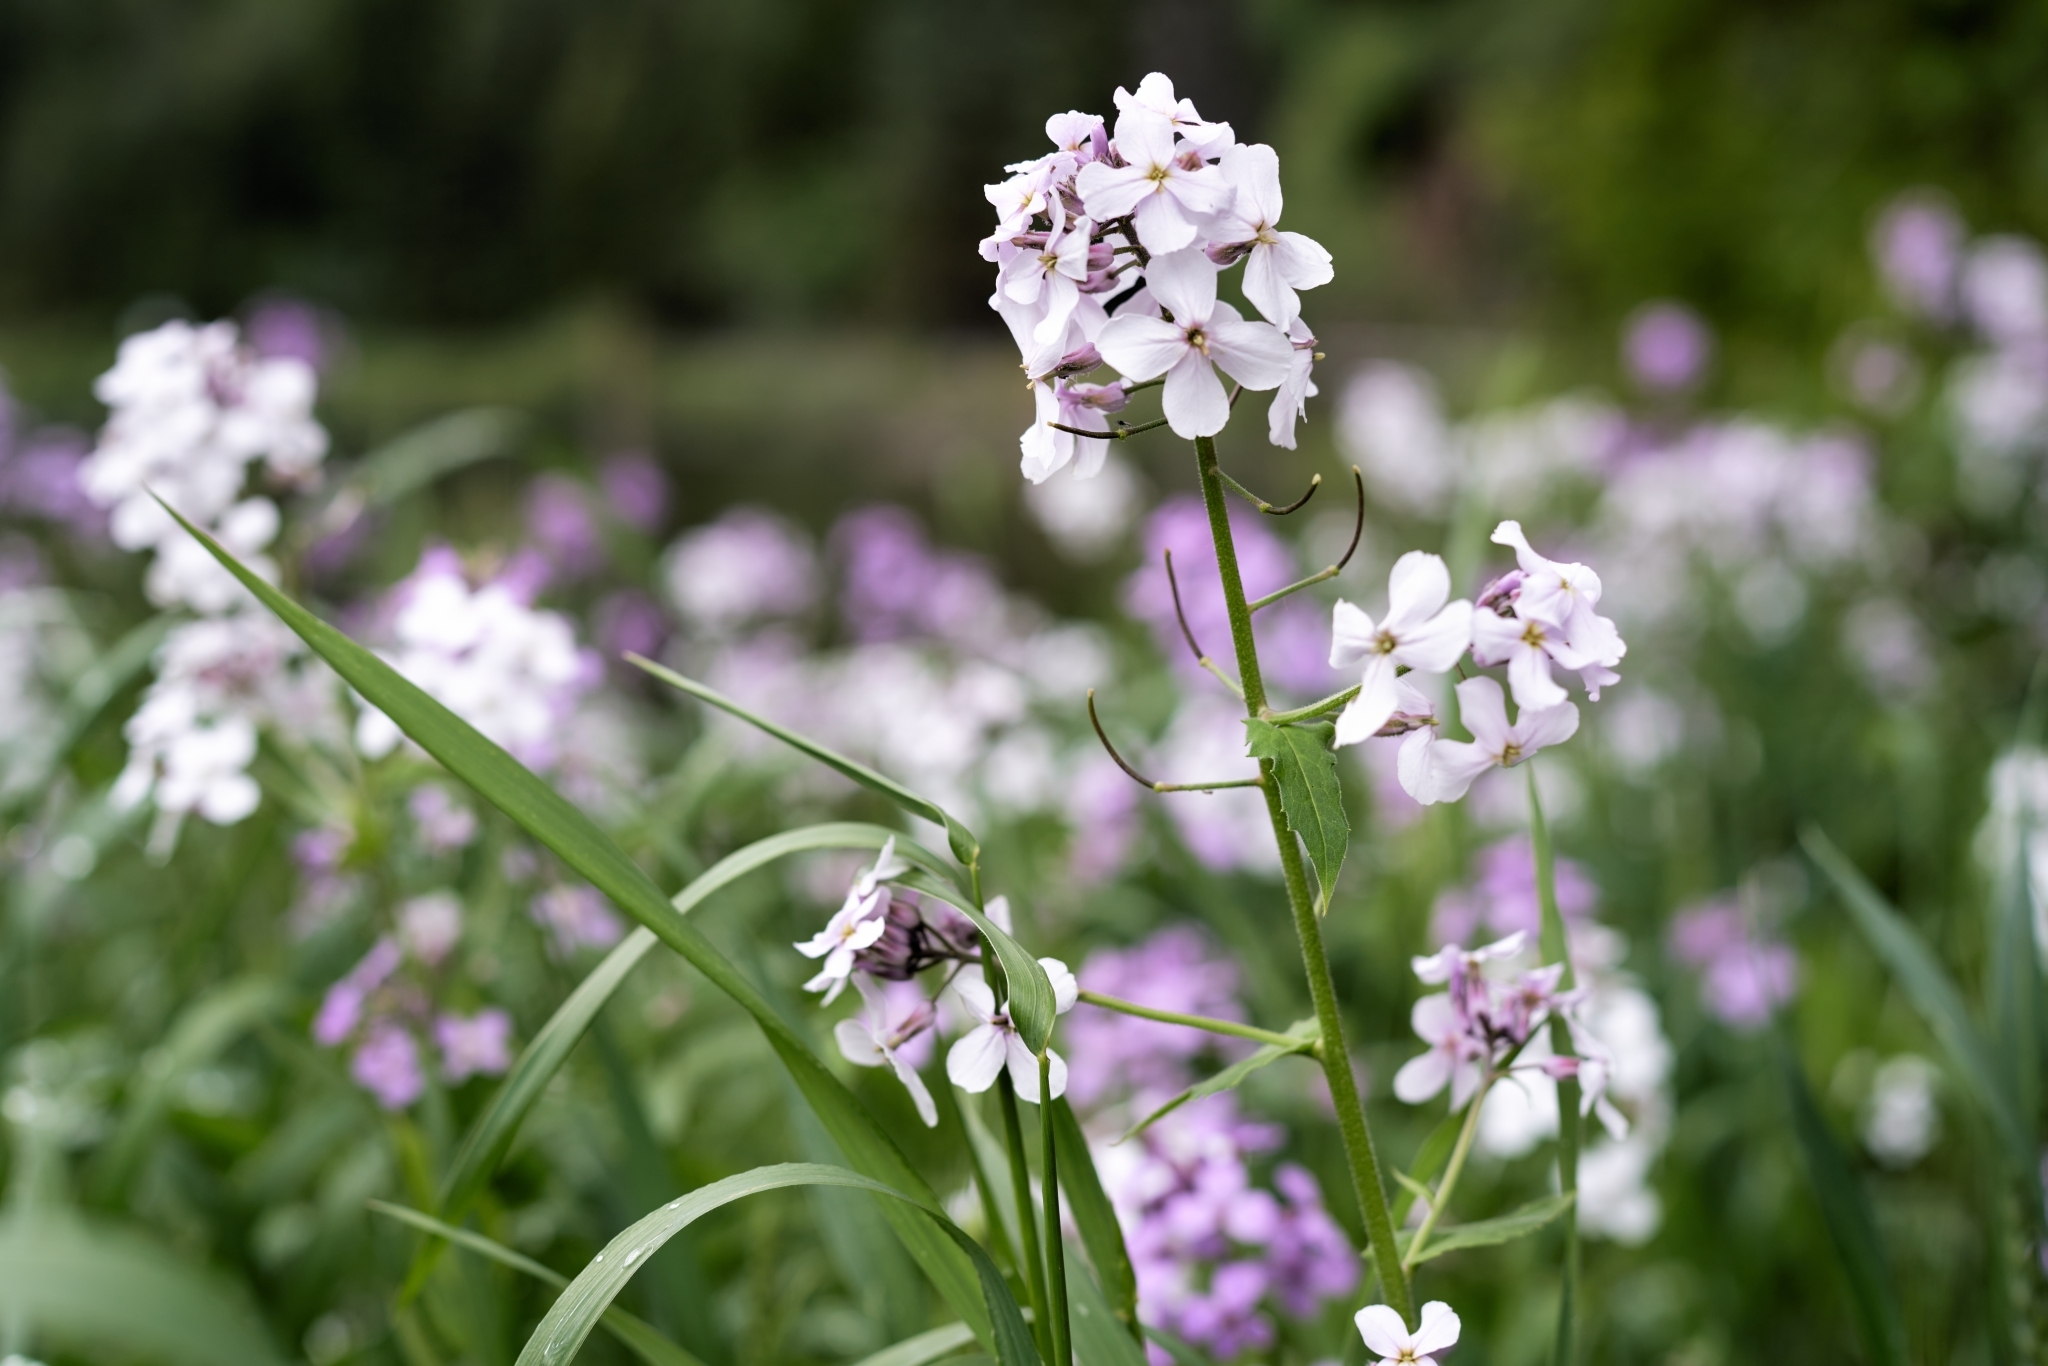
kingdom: Plantae
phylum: Tracheophyta
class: Magnoliopsida
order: Brassicales
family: Brassicaceae
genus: Hesperis
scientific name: Hesperis matronalis
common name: Dame's-violet
